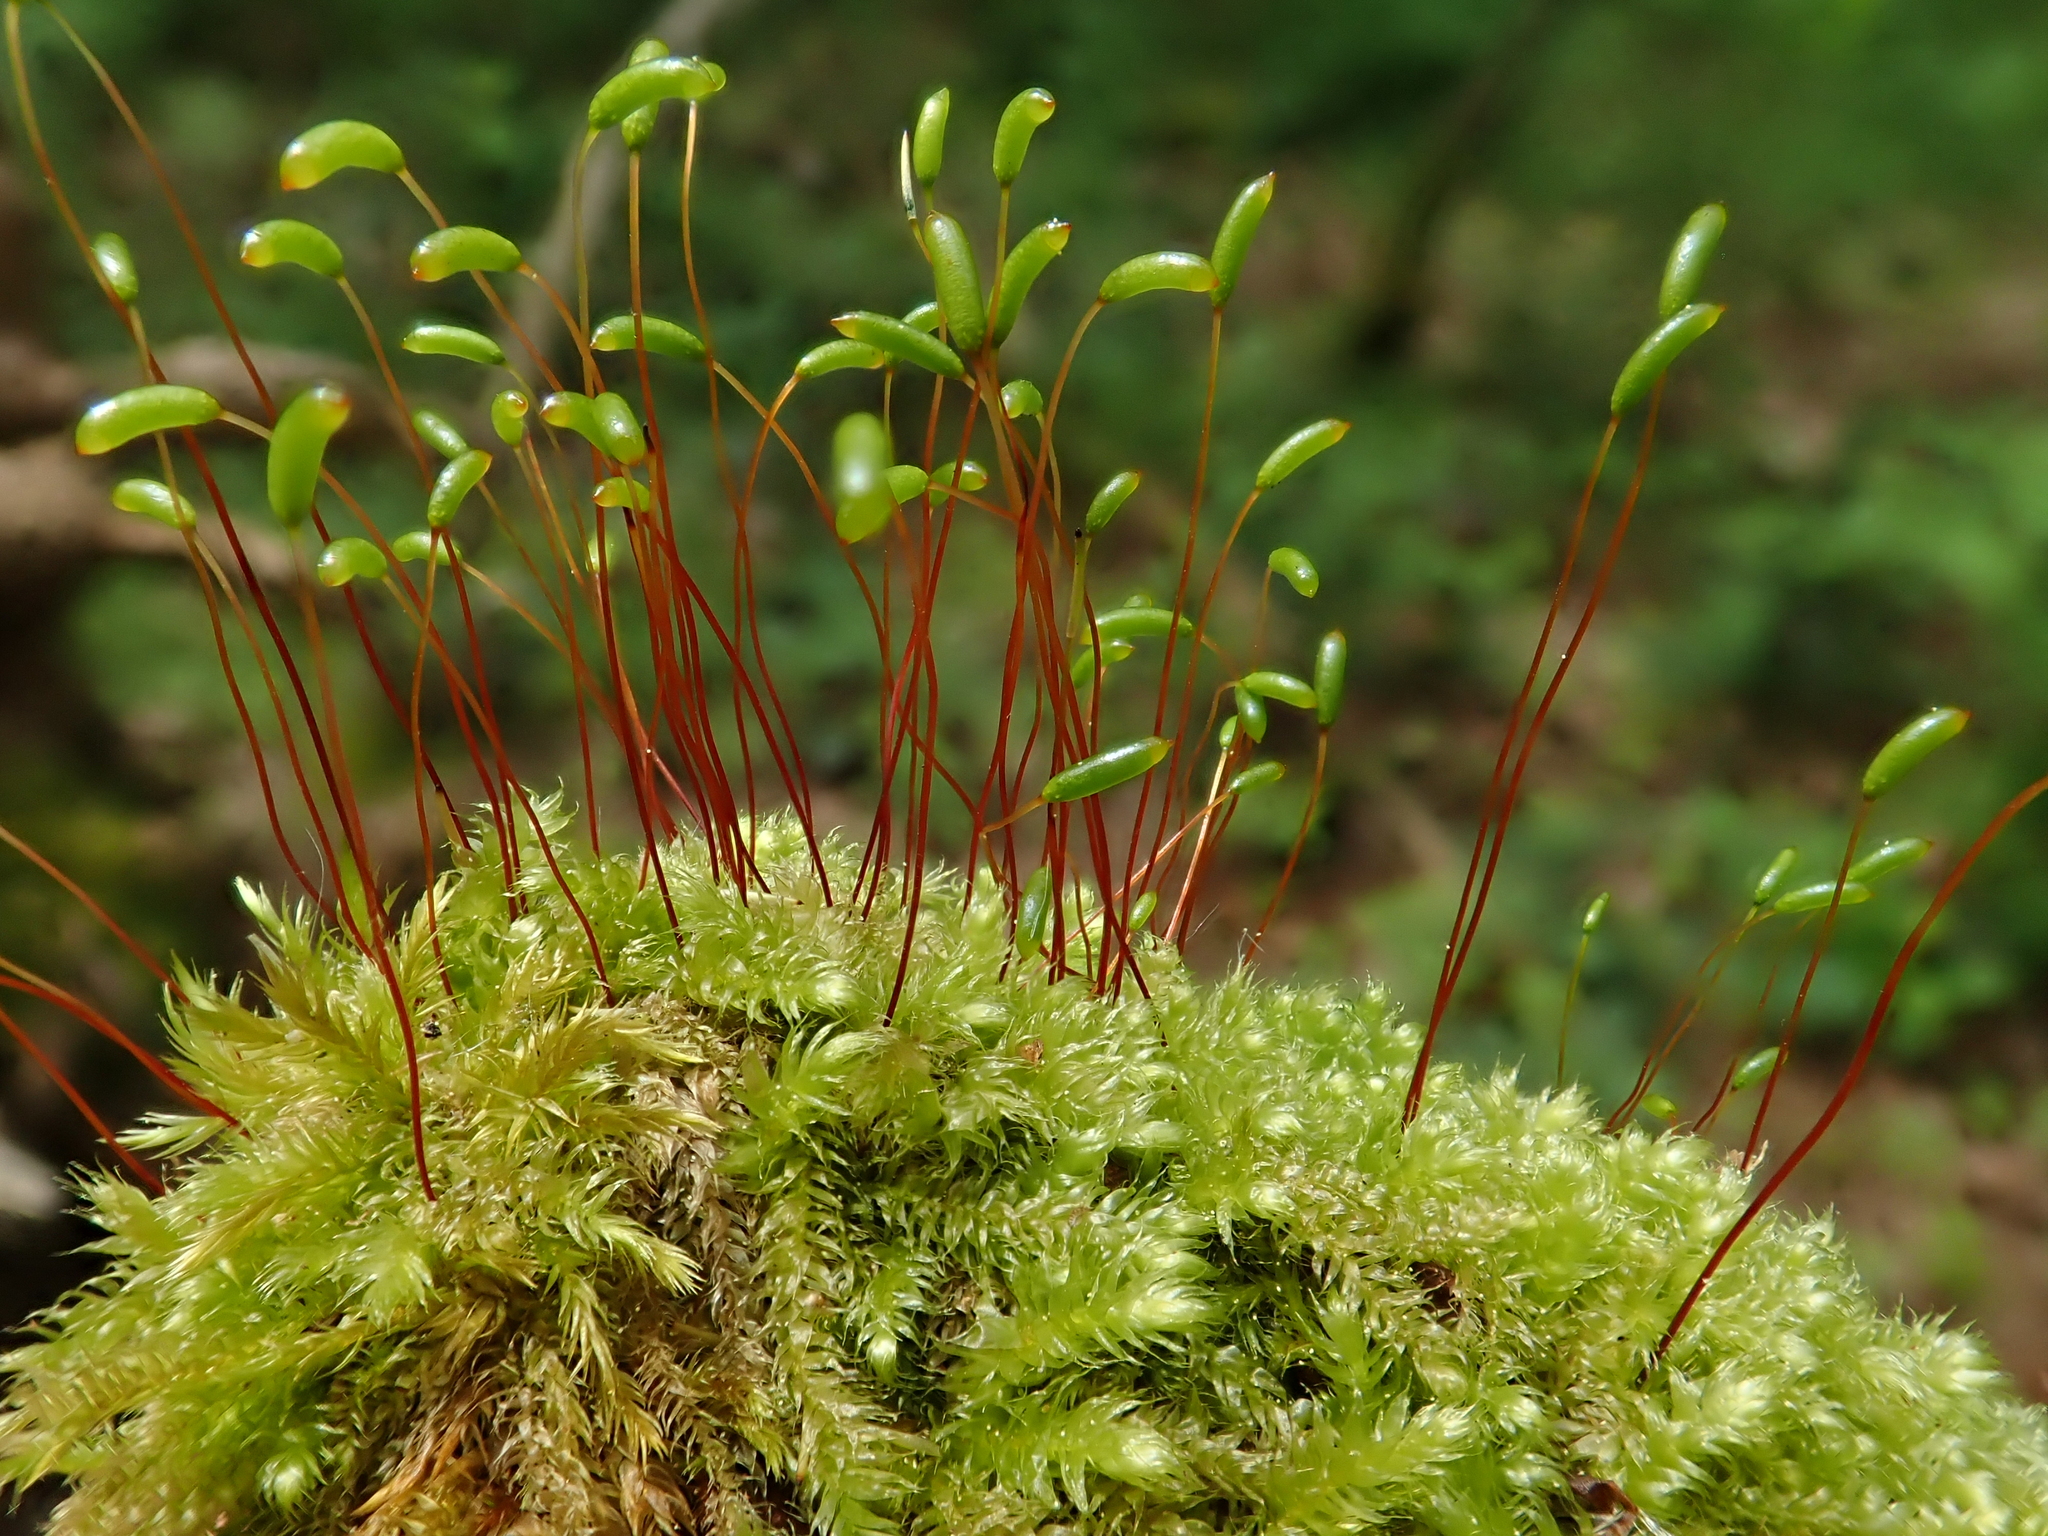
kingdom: Plantae
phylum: Bryophyta
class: Bryopsida
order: Hypnales
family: Plagiotheciaceae
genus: Herzogiella
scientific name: Herzogiella seligeri
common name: Silesian feather-moss
